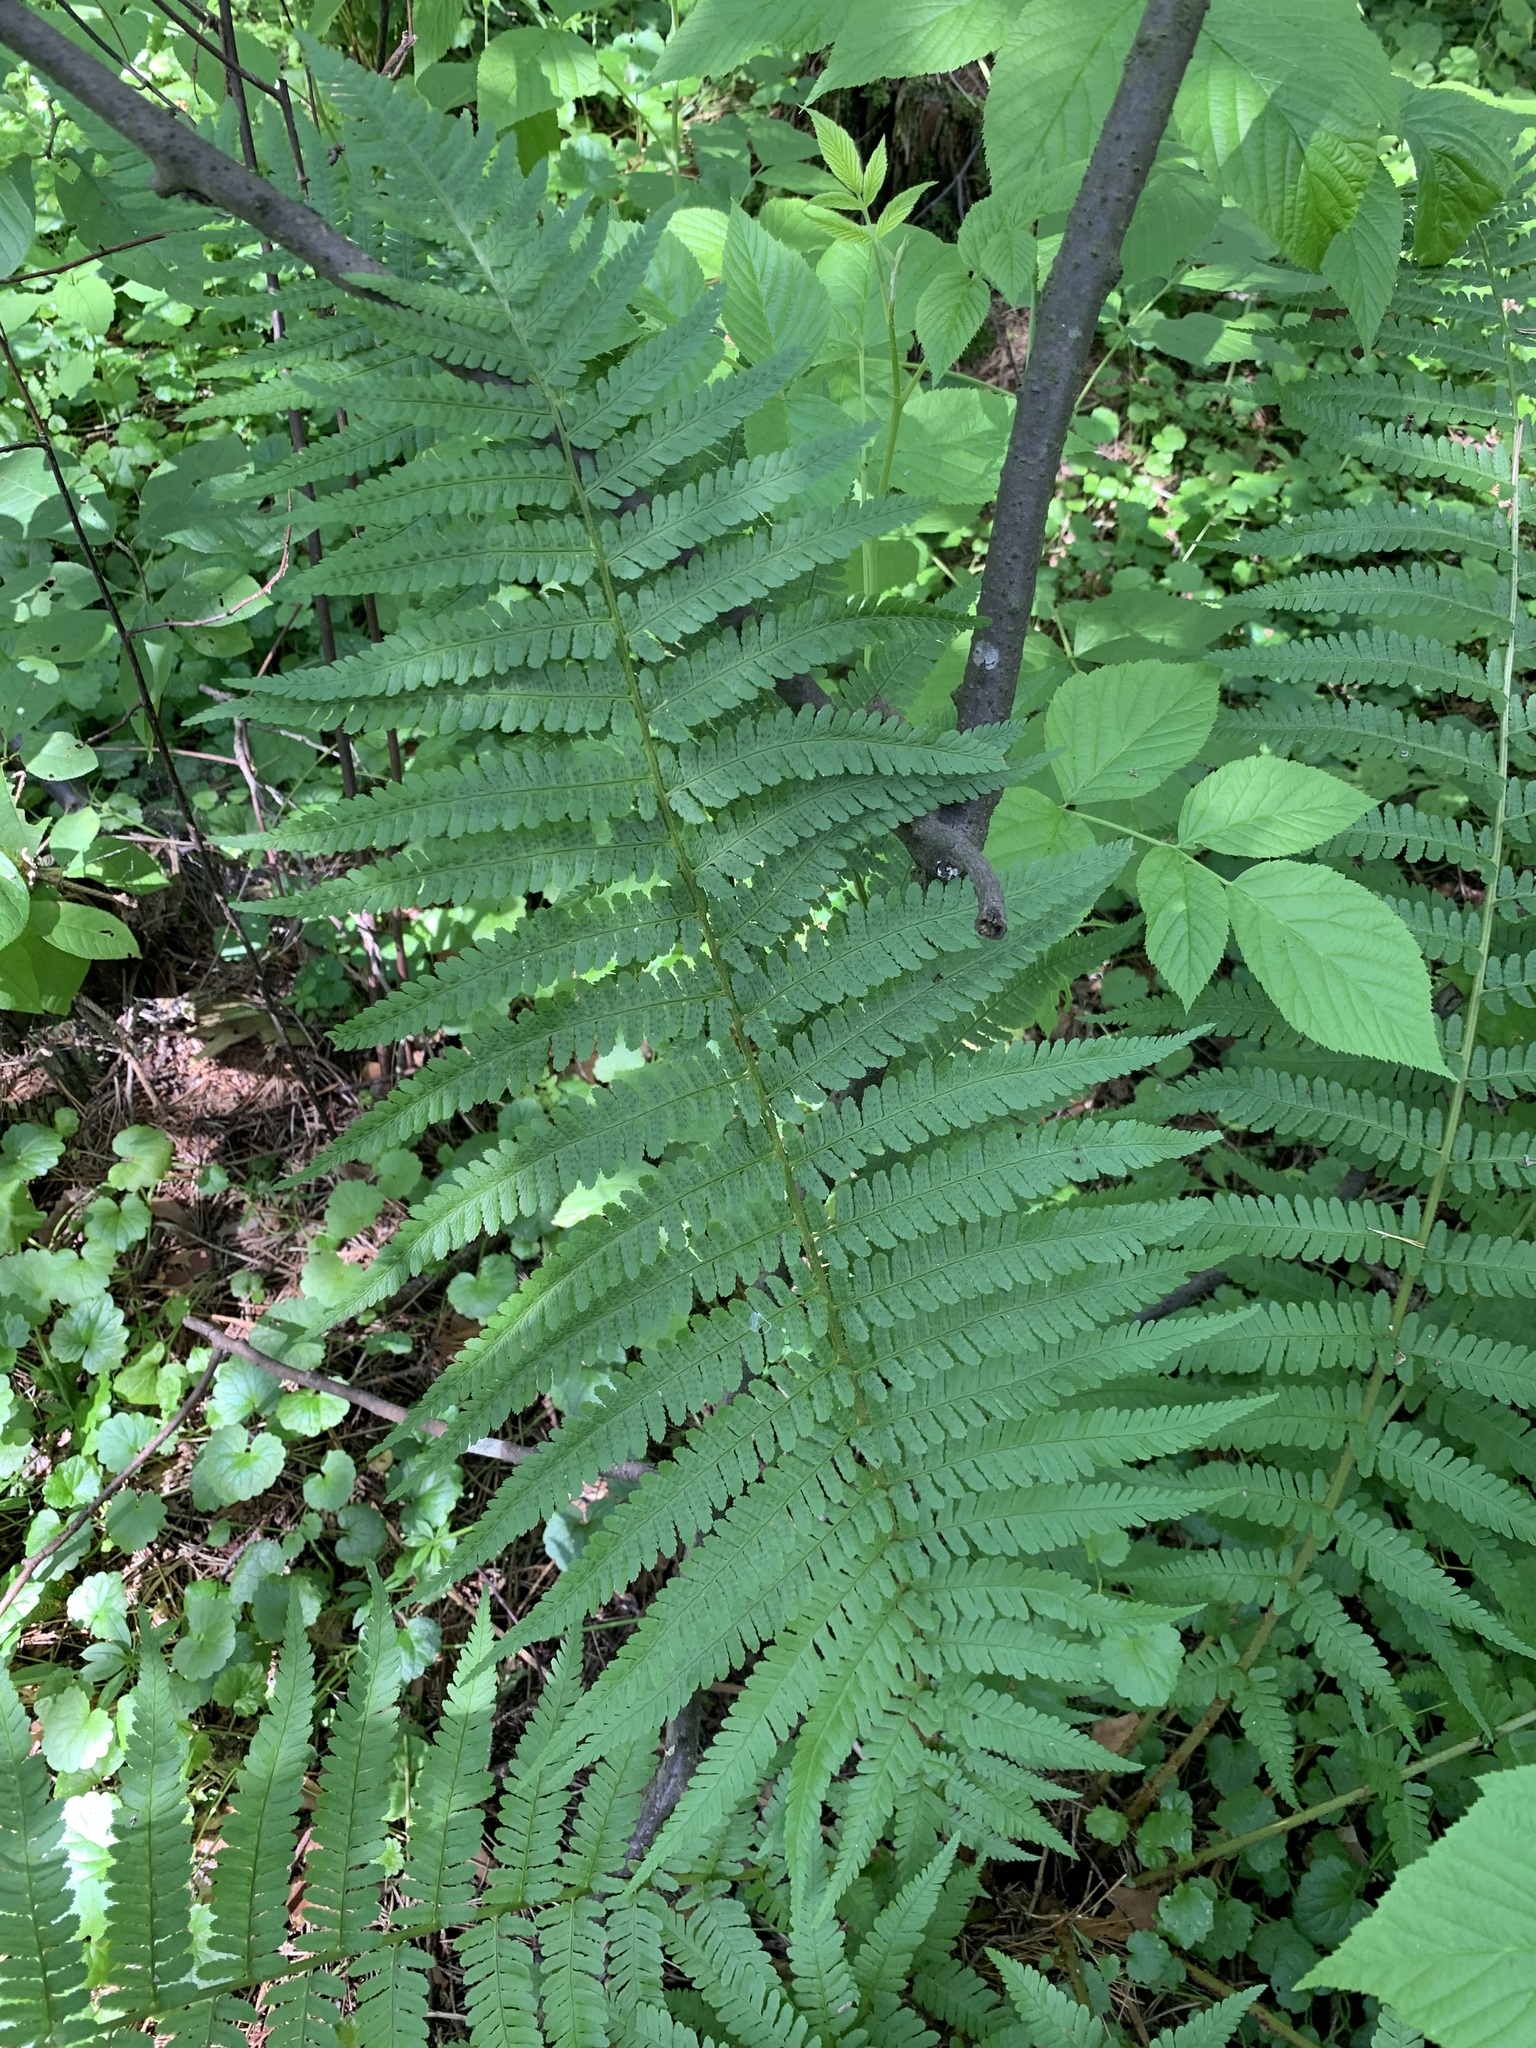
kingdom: Plantae
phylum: Tracheophyta
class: Polypodiopsida
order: Polypodiales
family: Dryopteridaceae
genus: Dryopteris
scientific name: Dryopteris filix-mas
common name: Male fern
